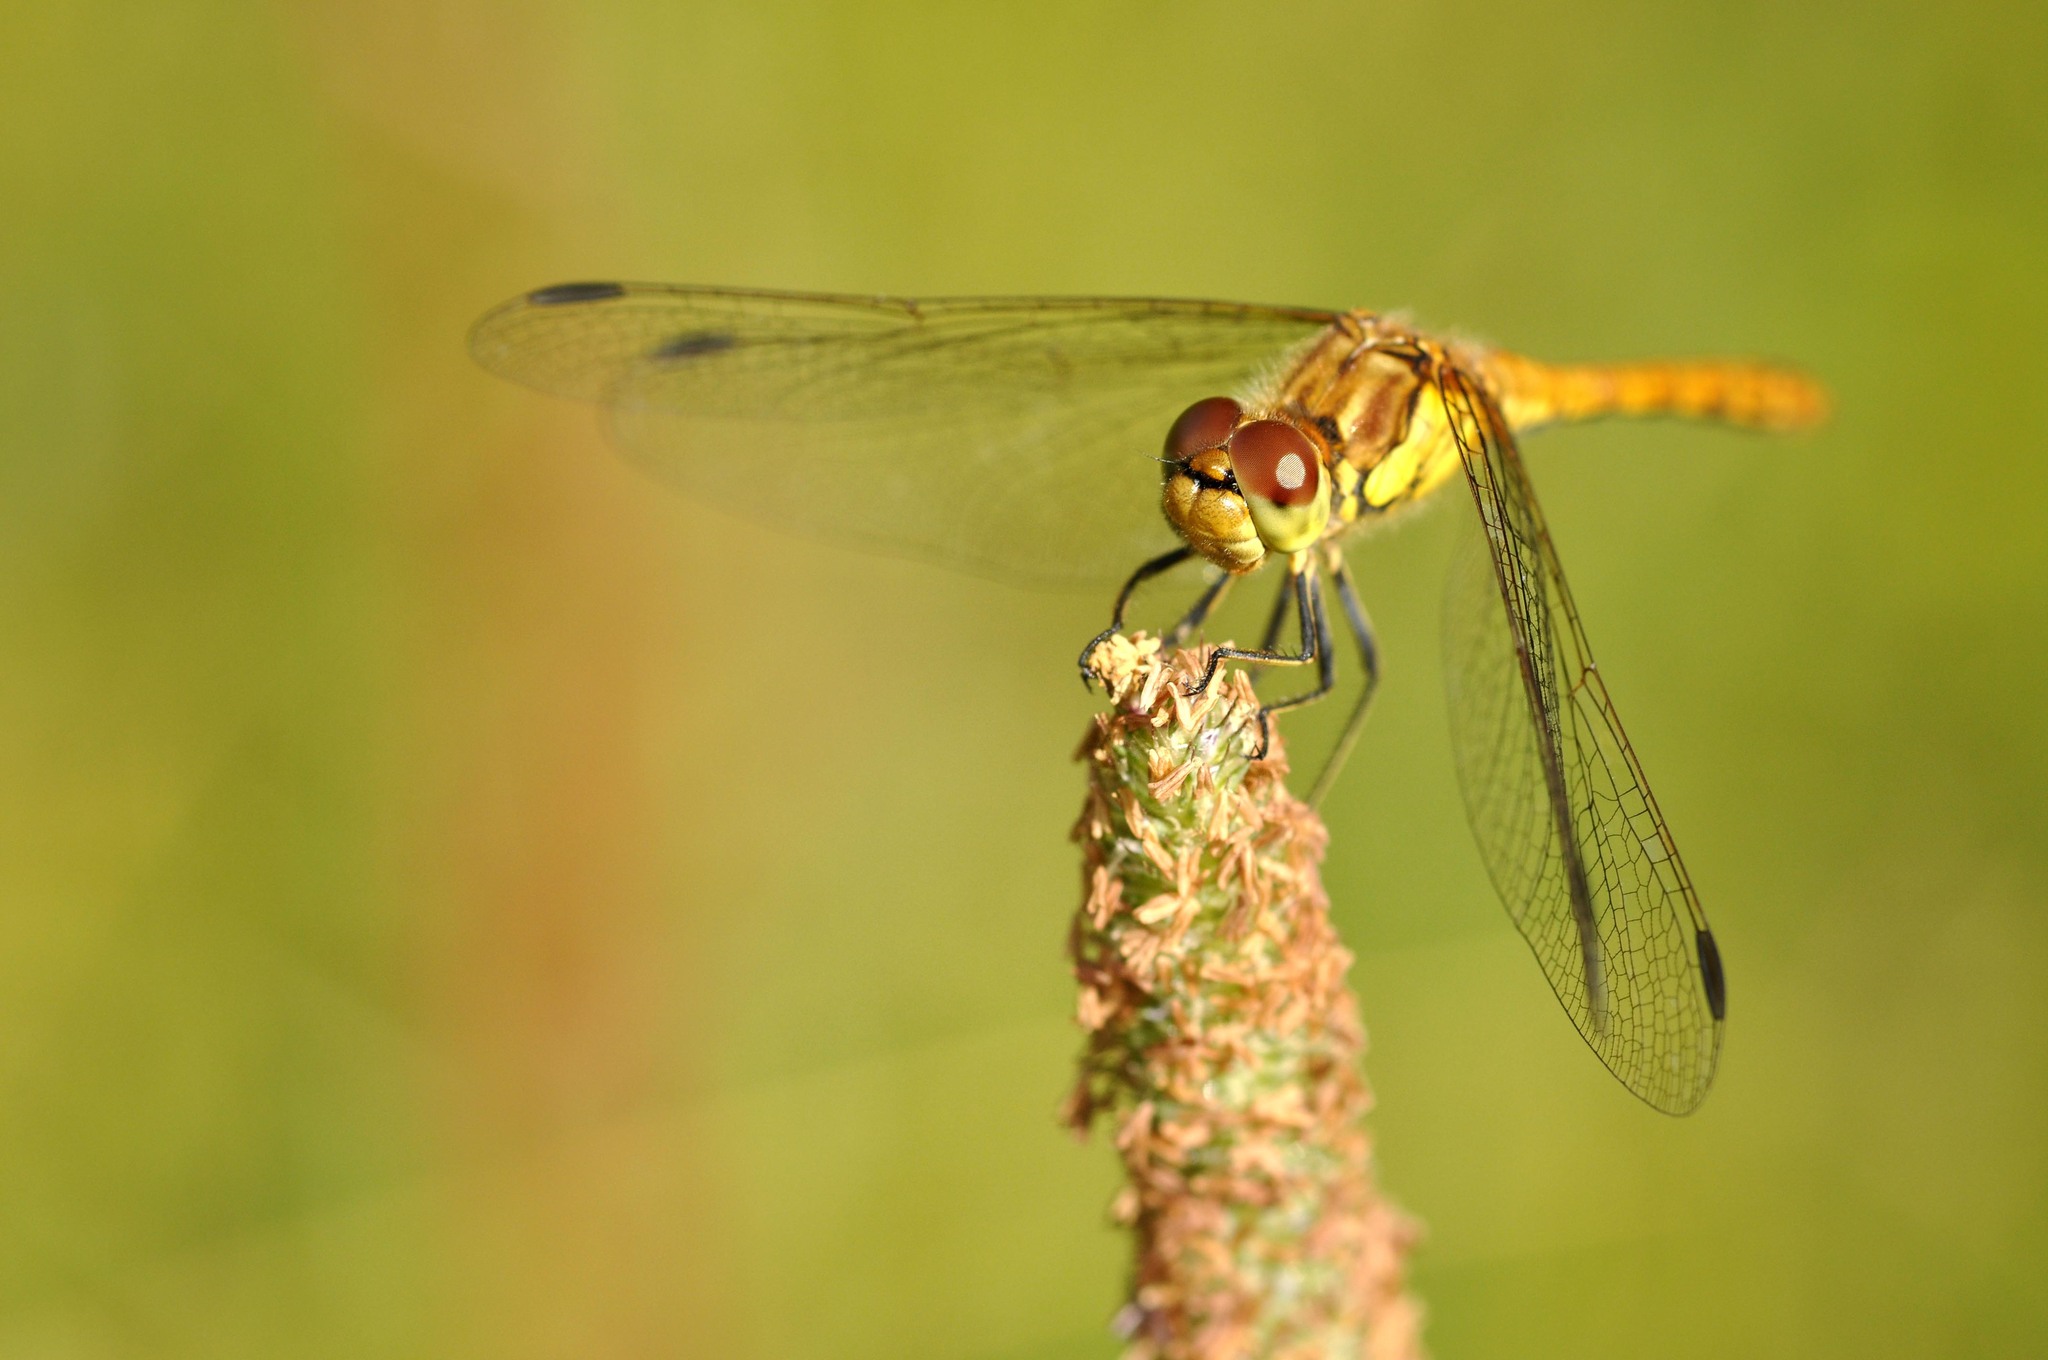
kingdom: Animalia
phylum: Arthropoda
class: Insecta
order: Odonata
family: Libellulidae
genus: Sympetrum
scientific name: Sympetrum striolatum
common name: Common darter
